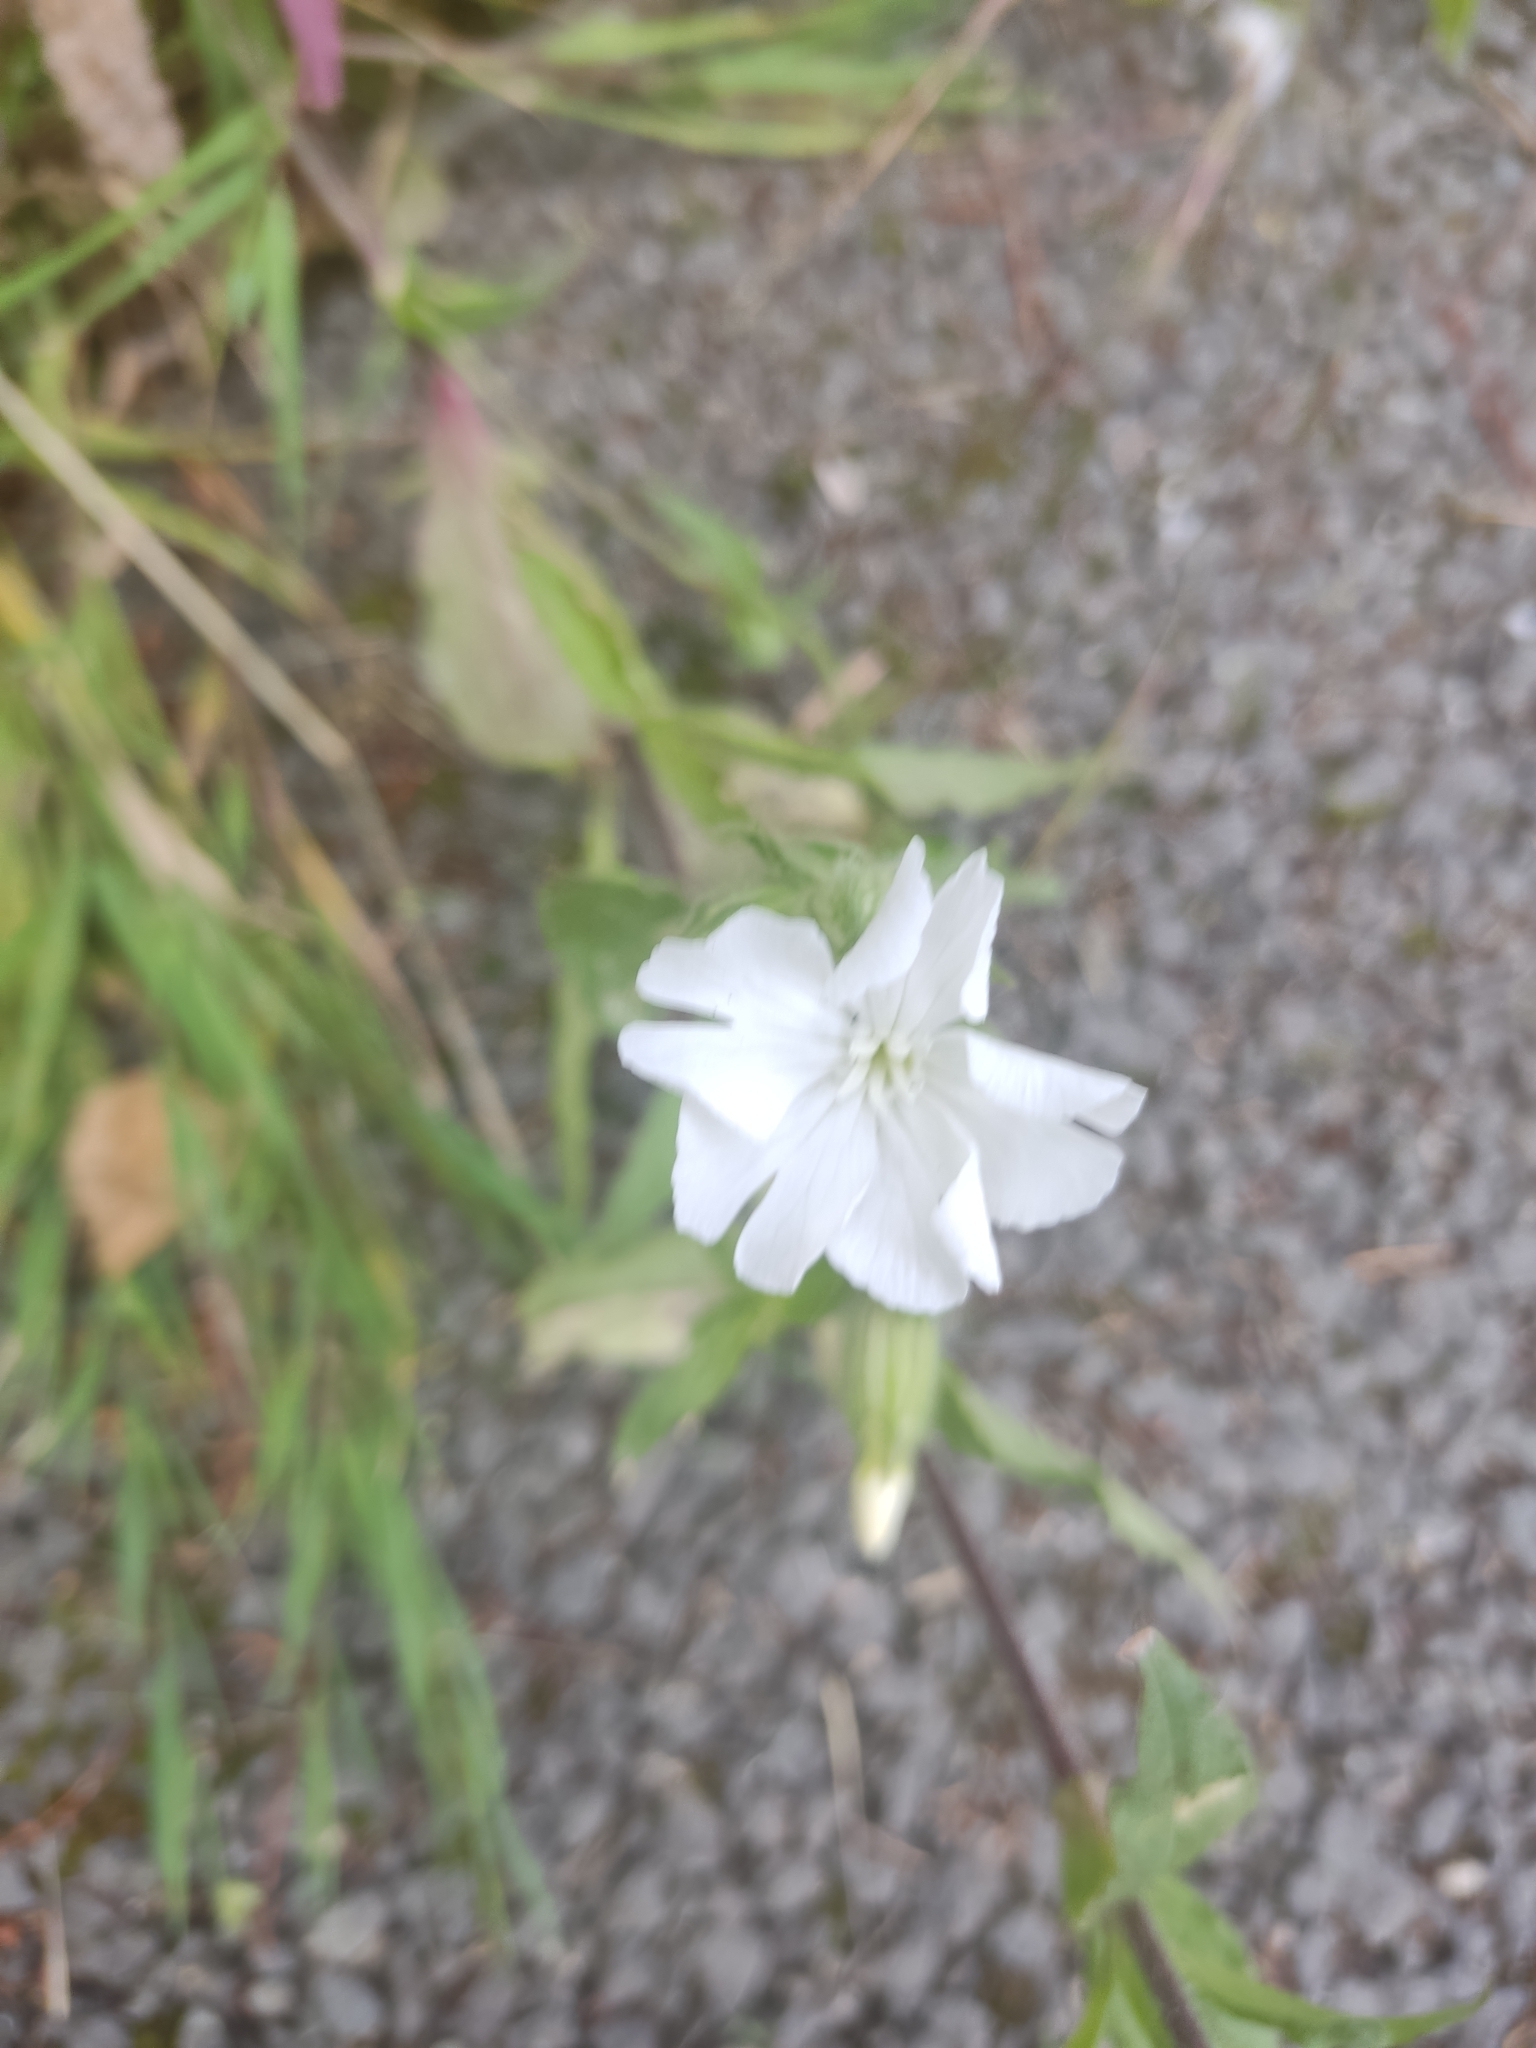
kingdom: Plantae
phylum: Tracheophyta
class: Magnoliopsida
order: Caryophyllales
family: Caryophyllaceae
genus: Silene
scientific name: Silene latifolia
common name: White campion
